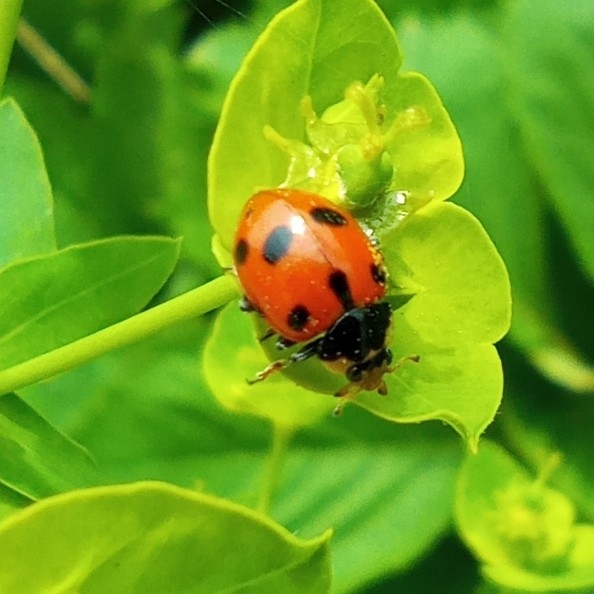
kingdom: Animalia
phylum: Arthropoda
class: Insecta
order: Coleoptera
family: Coccinellidae
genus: Ceratomegilla
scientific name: Ceratomegilla undecimnotata
